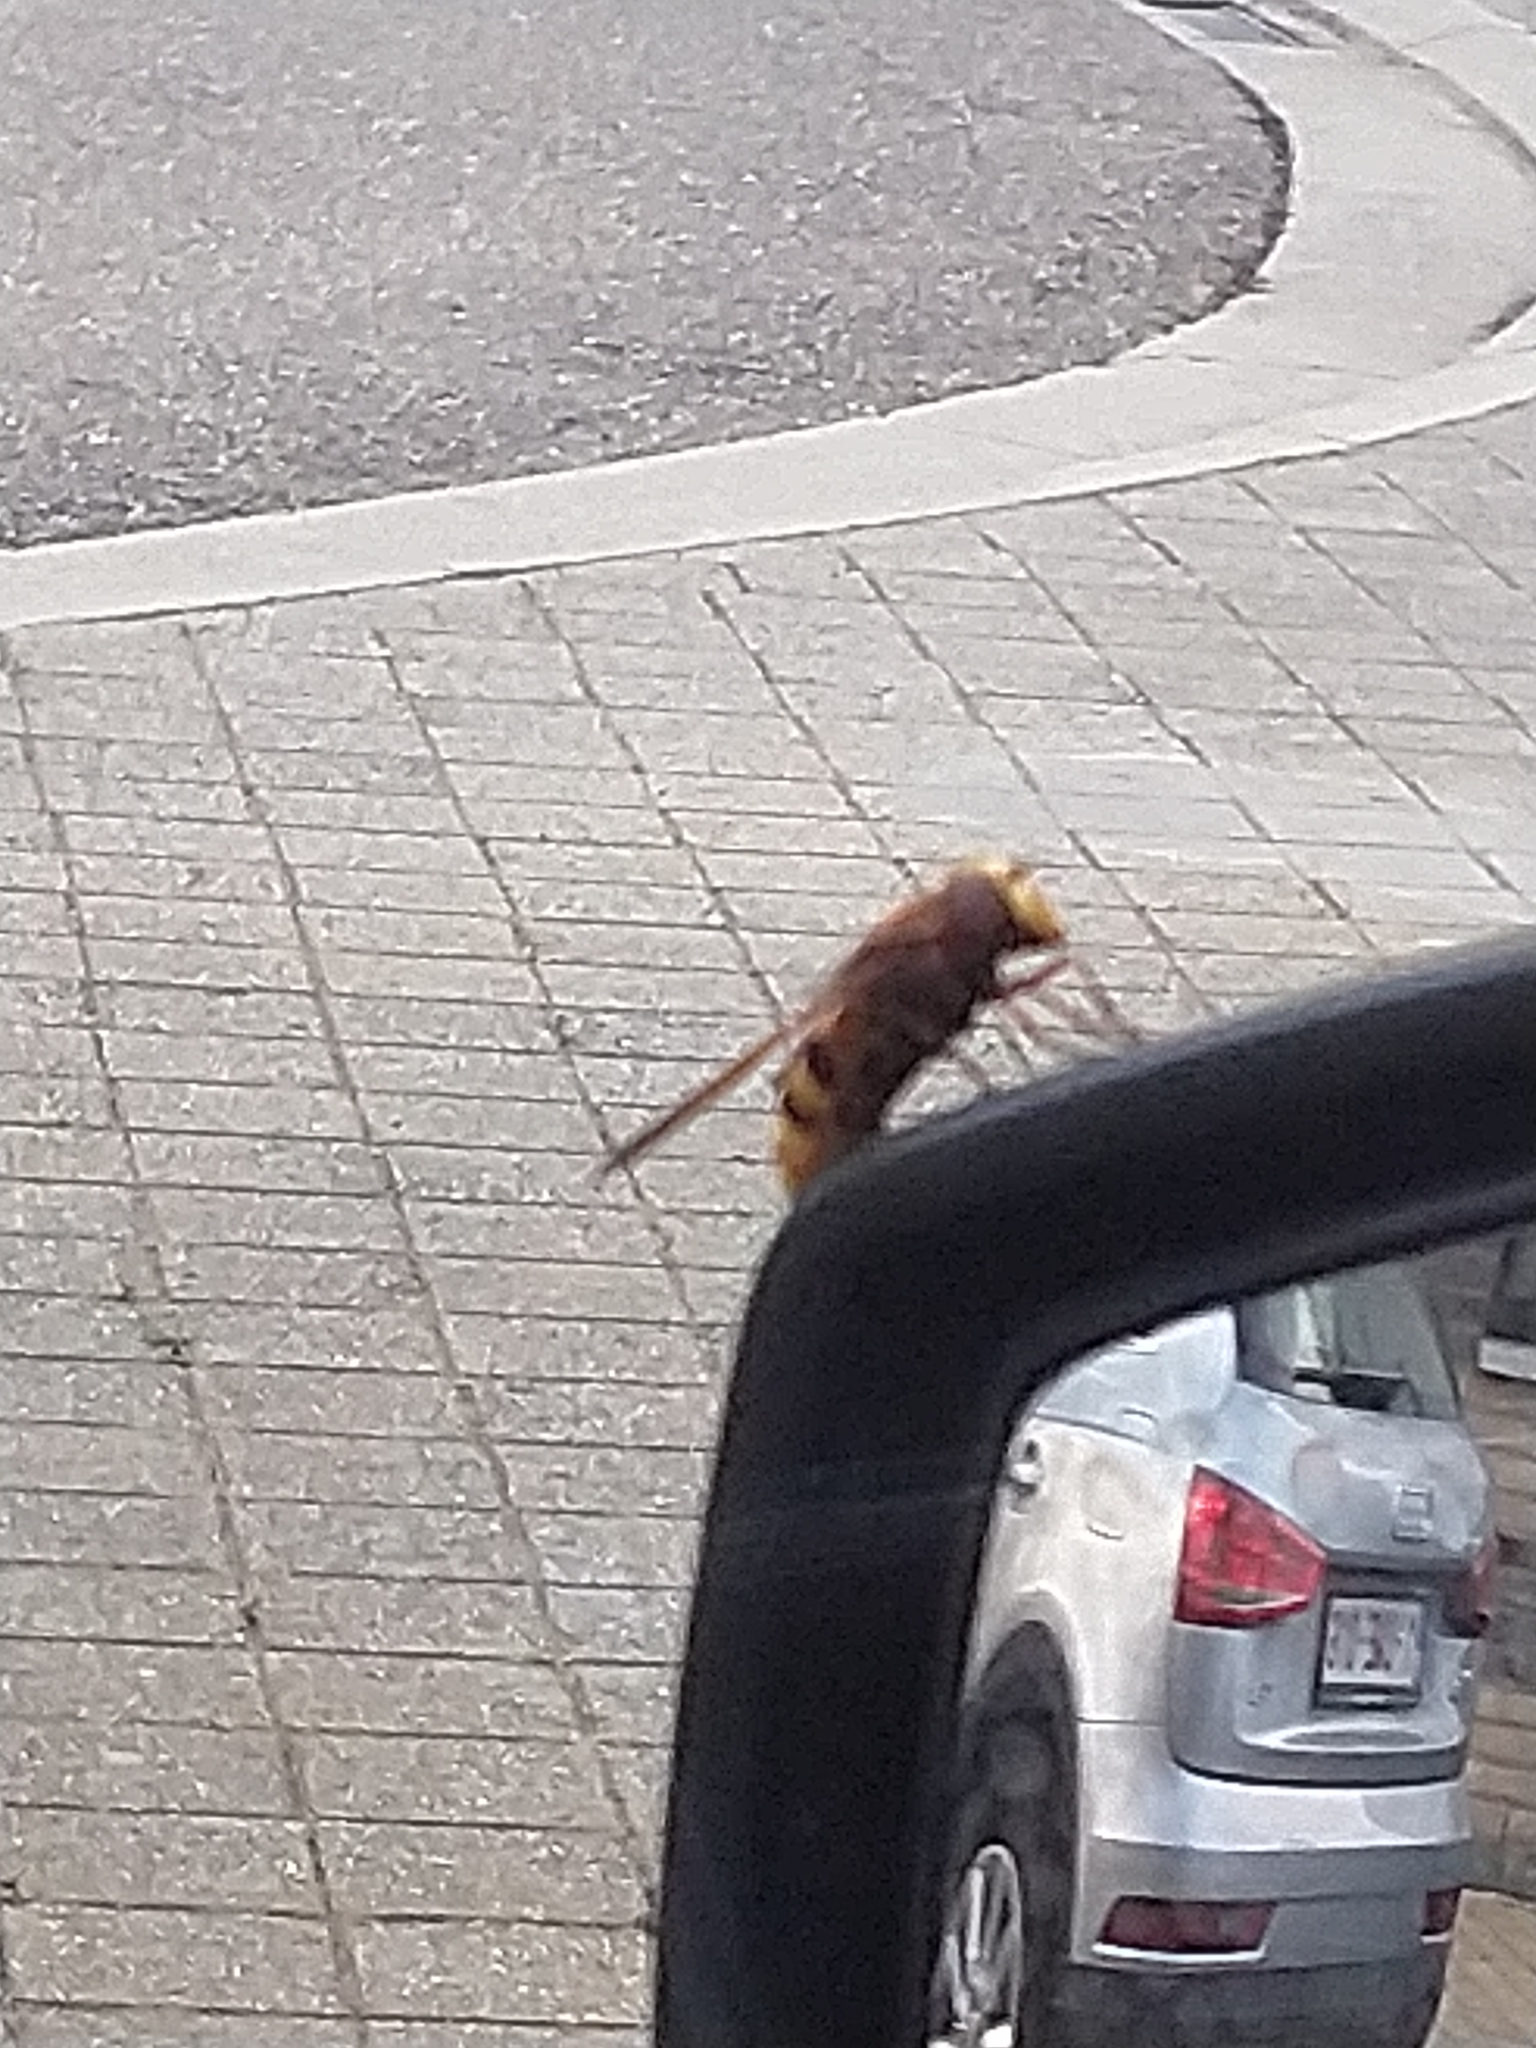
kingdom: Animalia
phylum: Arthropoda
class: Insecta
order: Diptera
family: Syrphidae
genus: Volucella
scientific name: Volucella zonaria
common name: Hornet hoverfly
